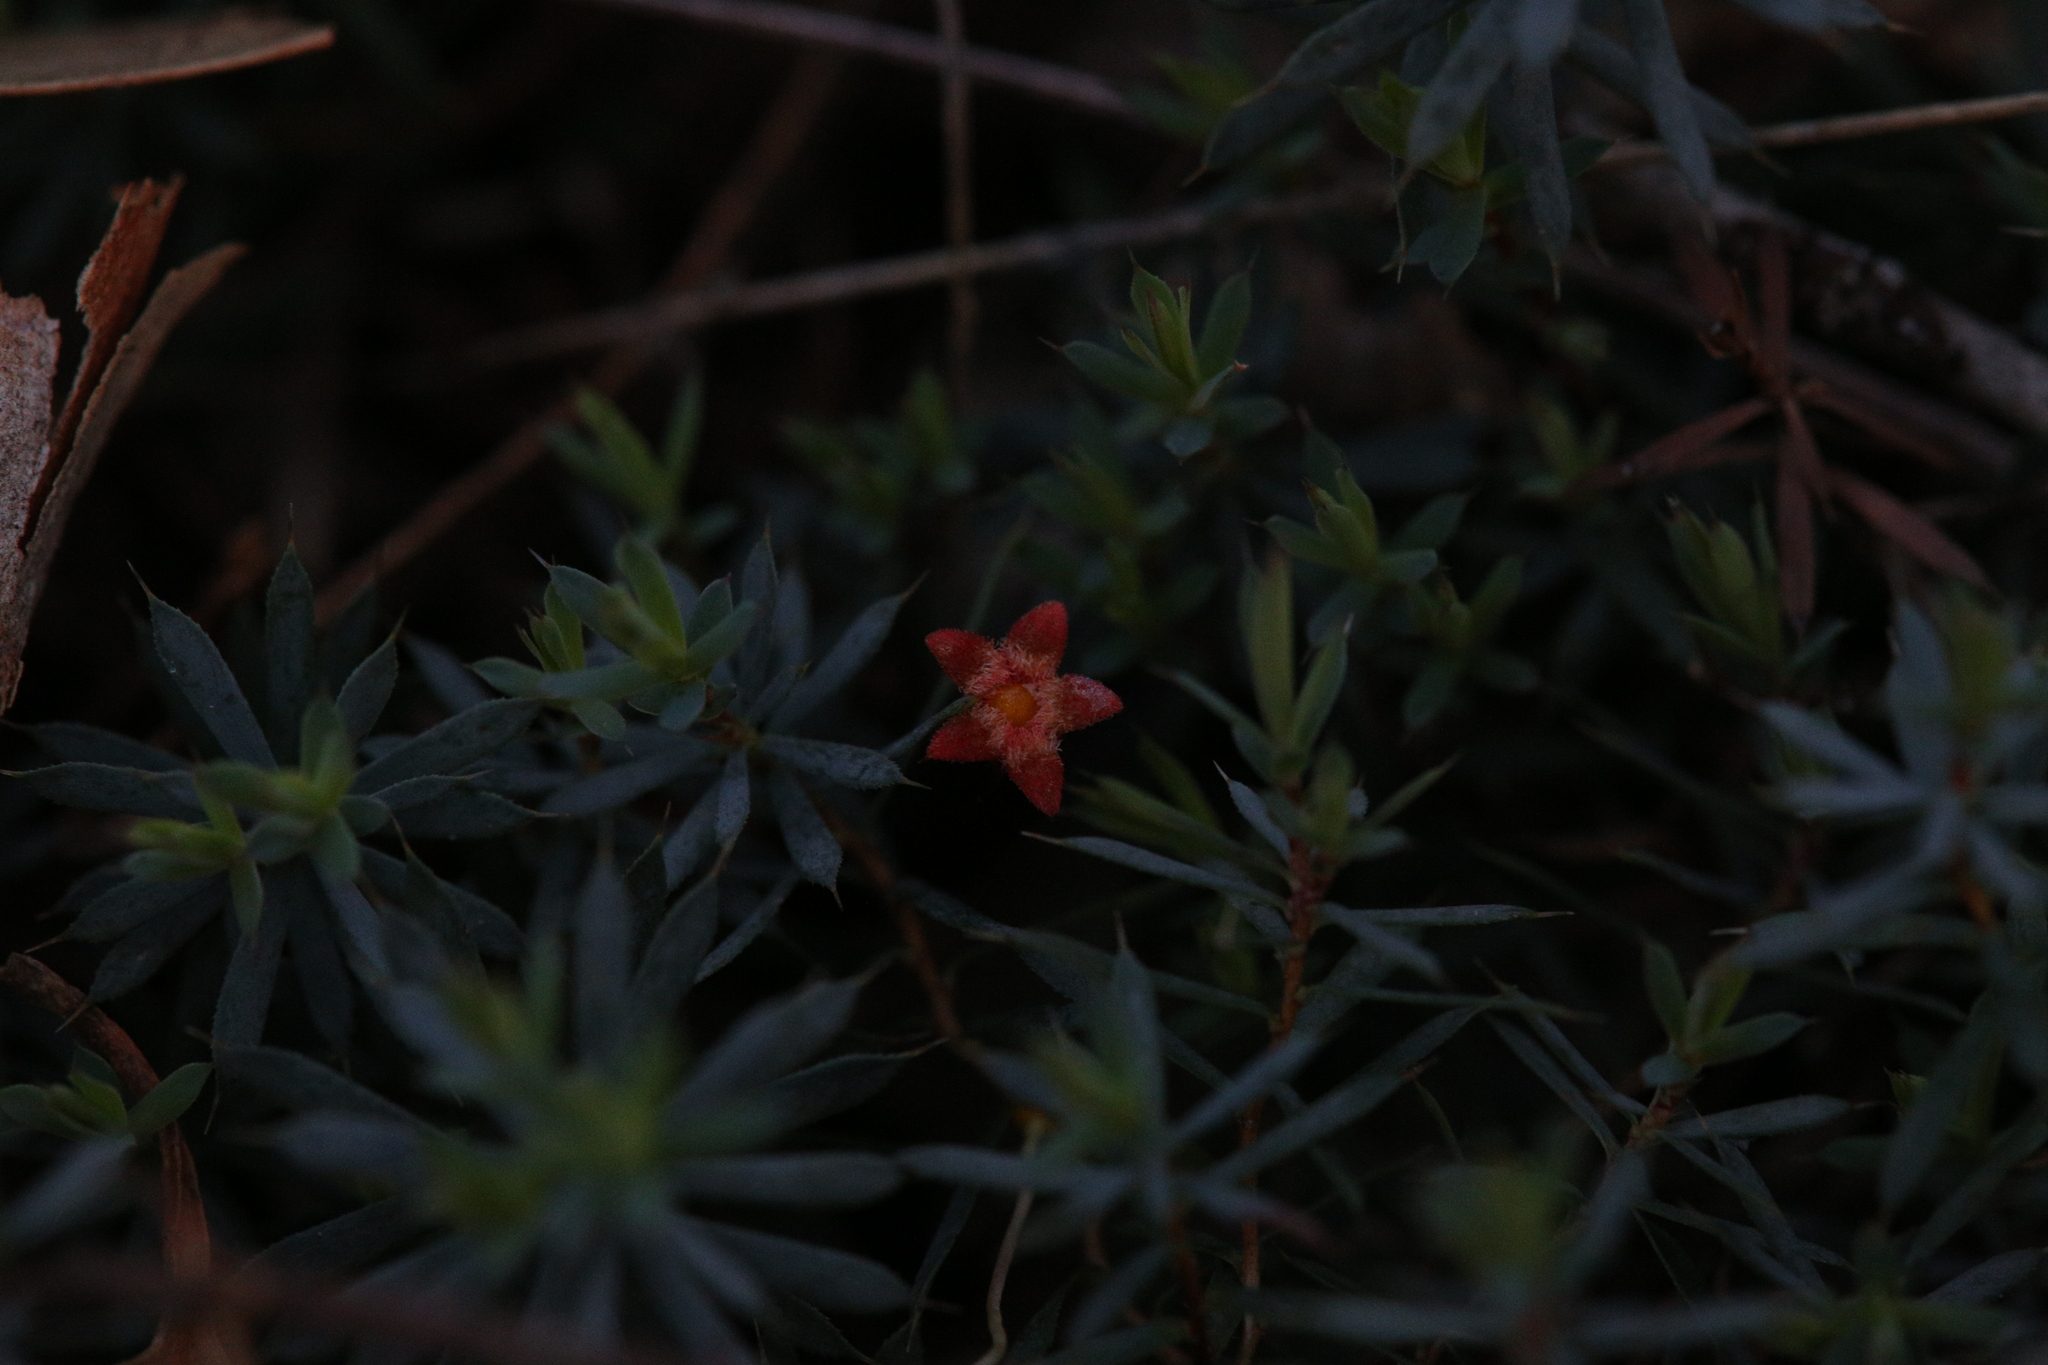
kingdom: Plantae
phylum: Tracheophyta
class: Magnoliopsida
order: Ericales
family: Ericaceae
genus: Styphelia
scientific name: Styphelia discolor
